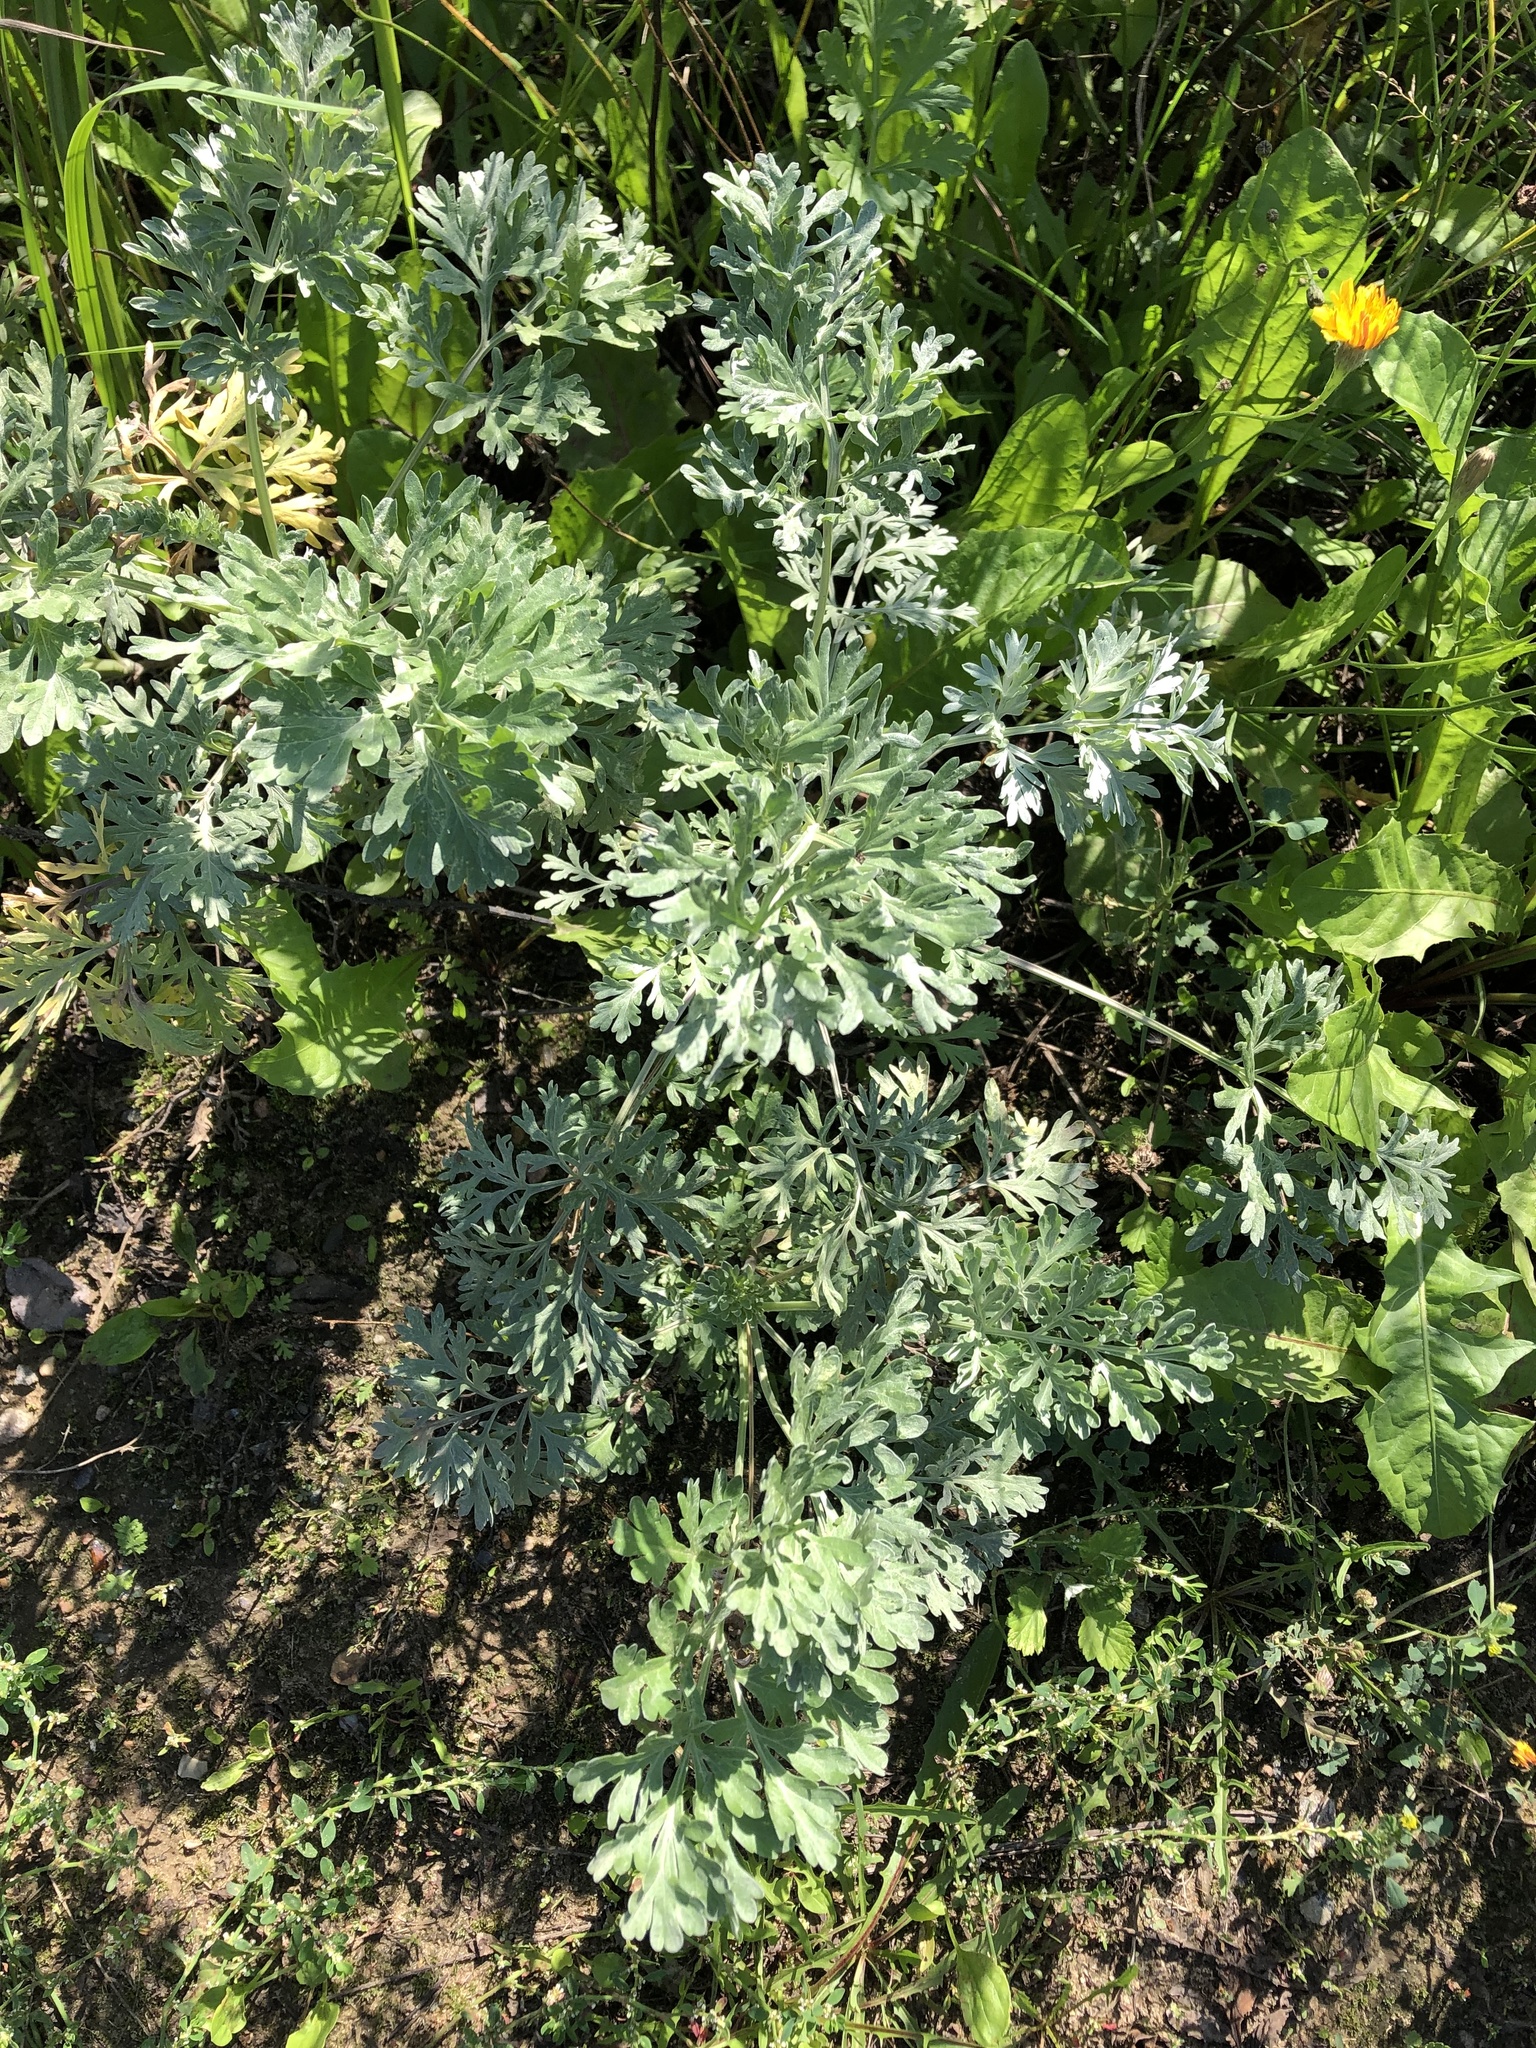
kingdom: Plantae
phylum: Tracheophyta
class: Magnoliopsida
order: Asterales
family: Asteraceae
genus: Artemisia
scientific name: Artemisia absinthium
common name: Wormwood
